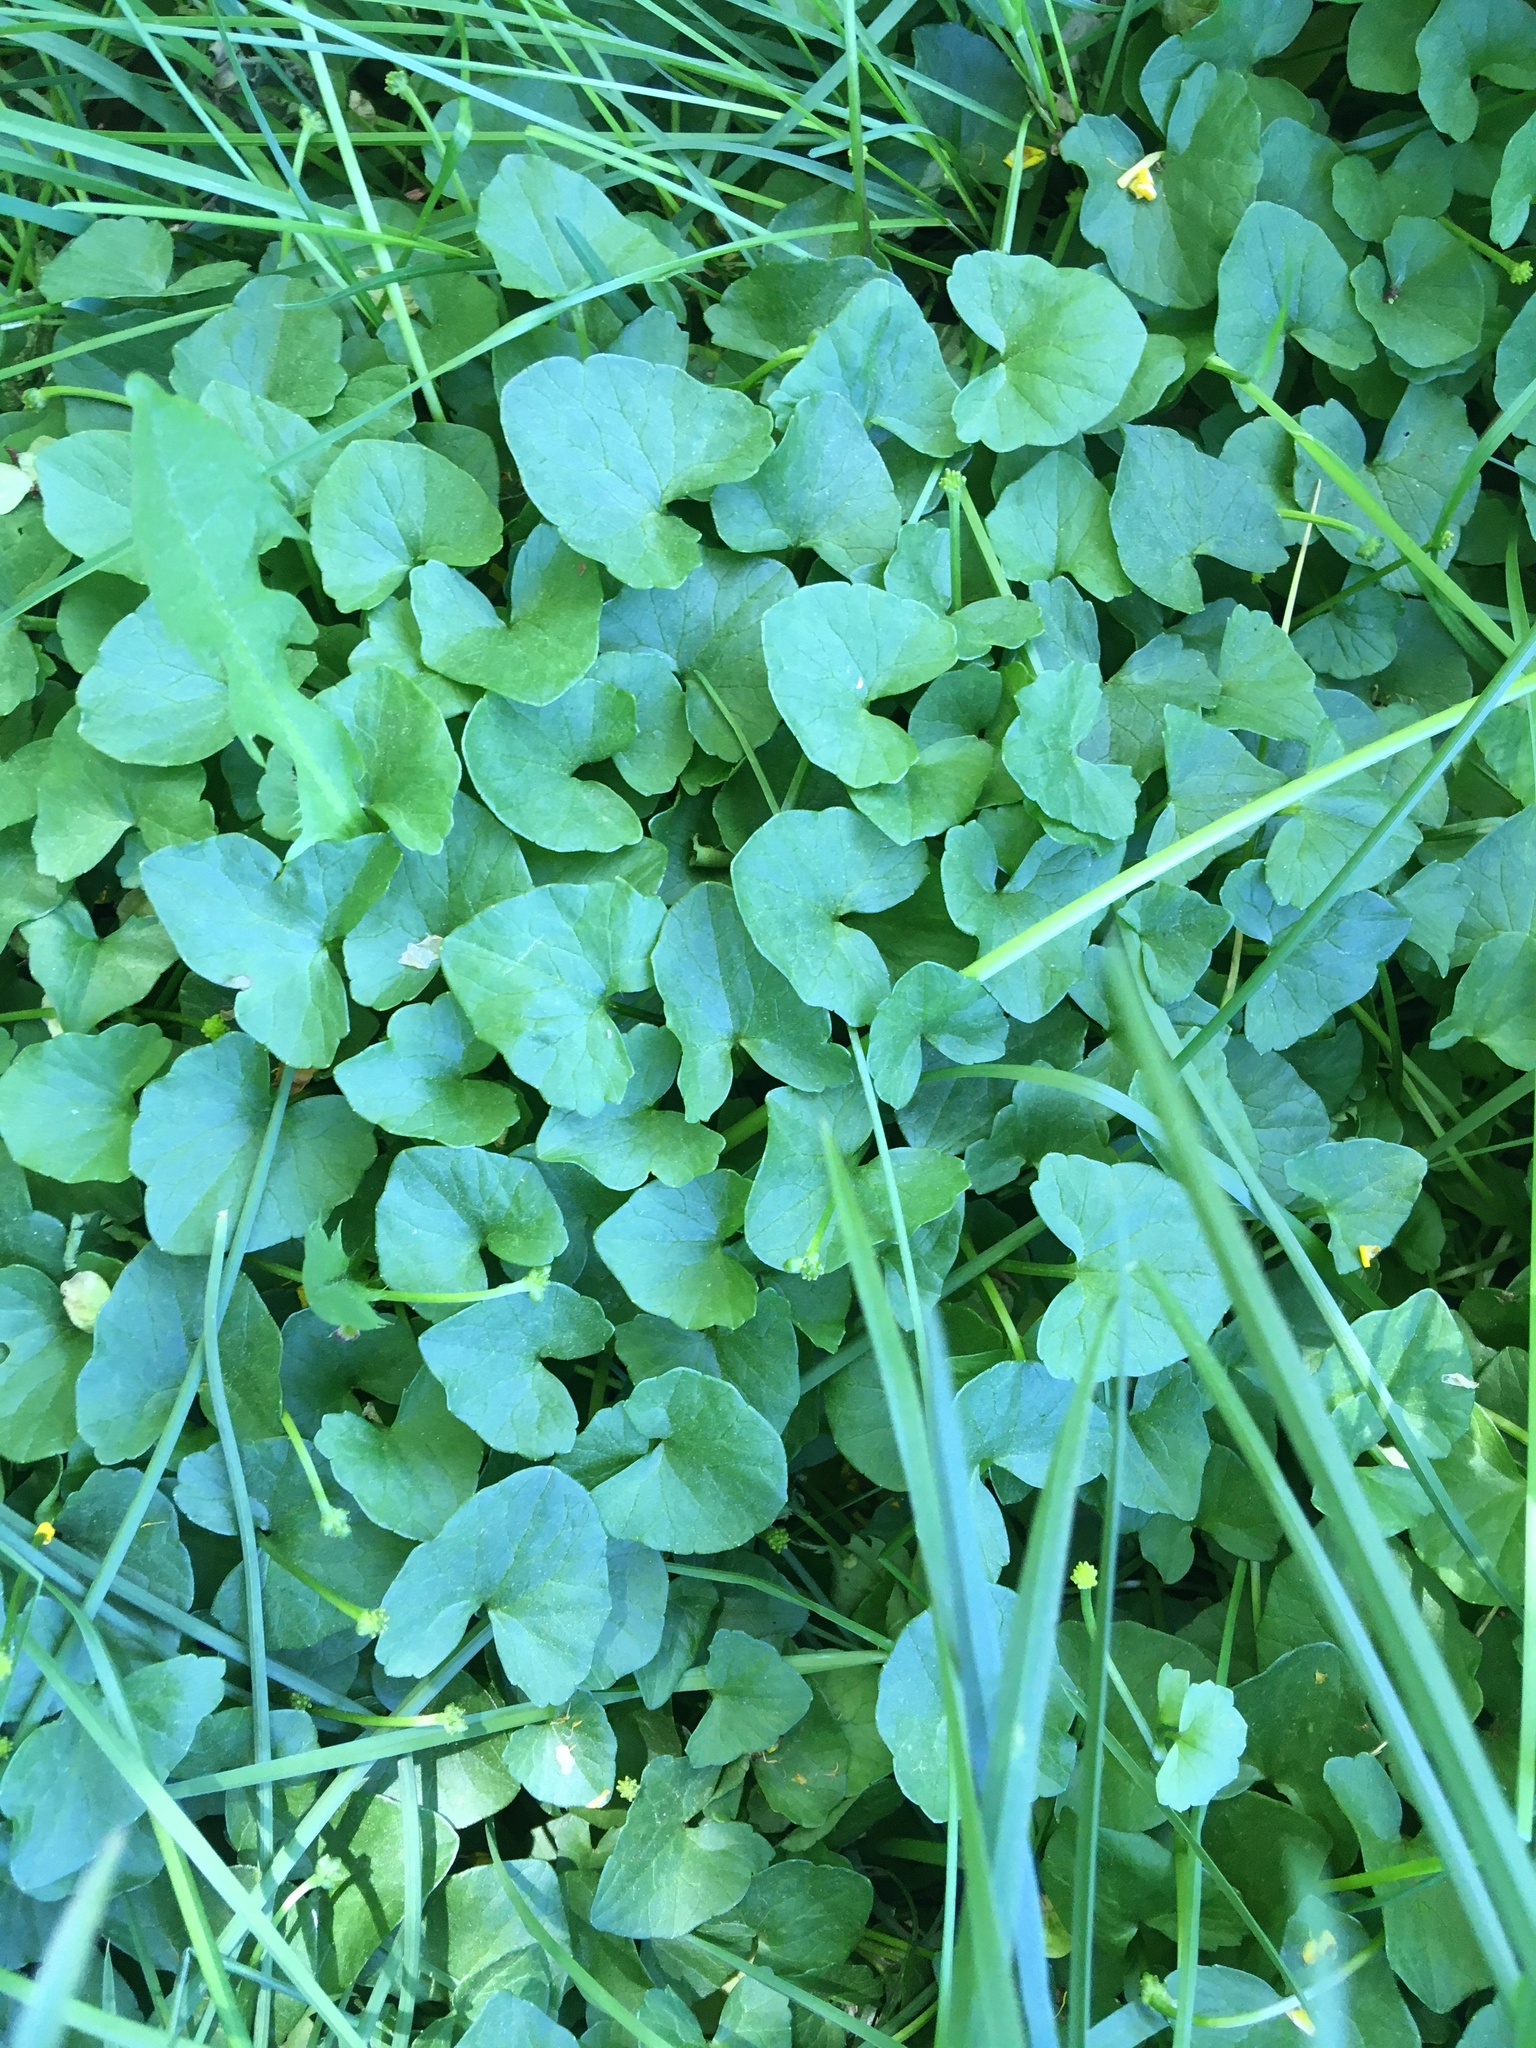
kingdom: Plantae
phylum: Tracheophyta
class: Magnoliopsida
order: Ranunculales
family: Ranunculaceae
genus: Ficaria
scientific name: Ficaria verna
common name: Lesser celandine
